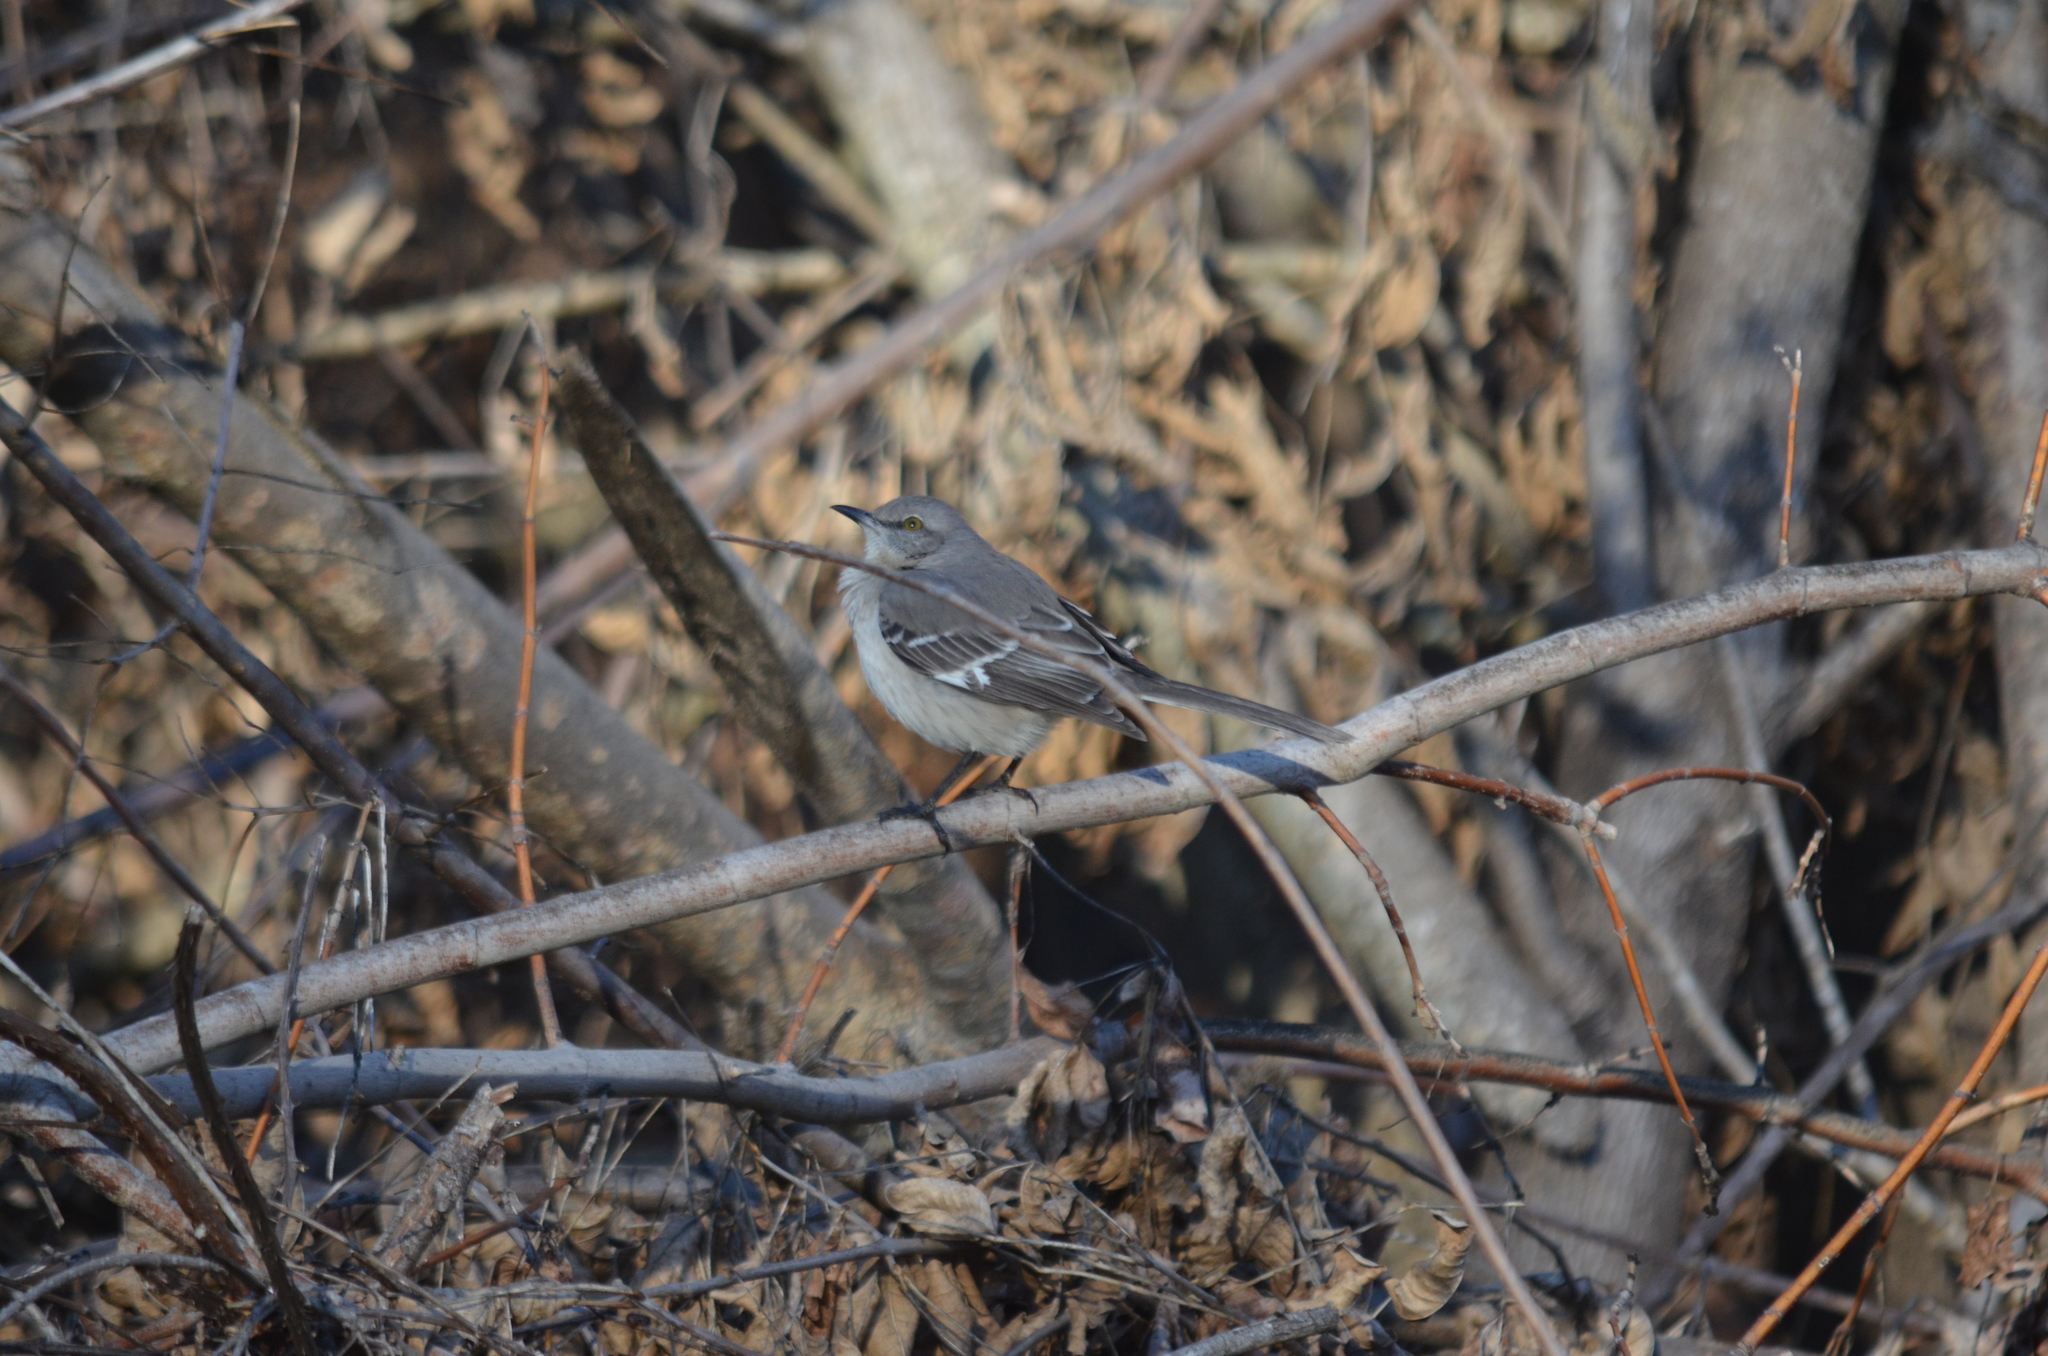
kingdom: Animalia
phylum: Chordata
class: Aves
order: Passeriformes
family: Mimidae
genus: Mimus
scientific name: Mimus polyglottos
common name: Northern mockingbird
